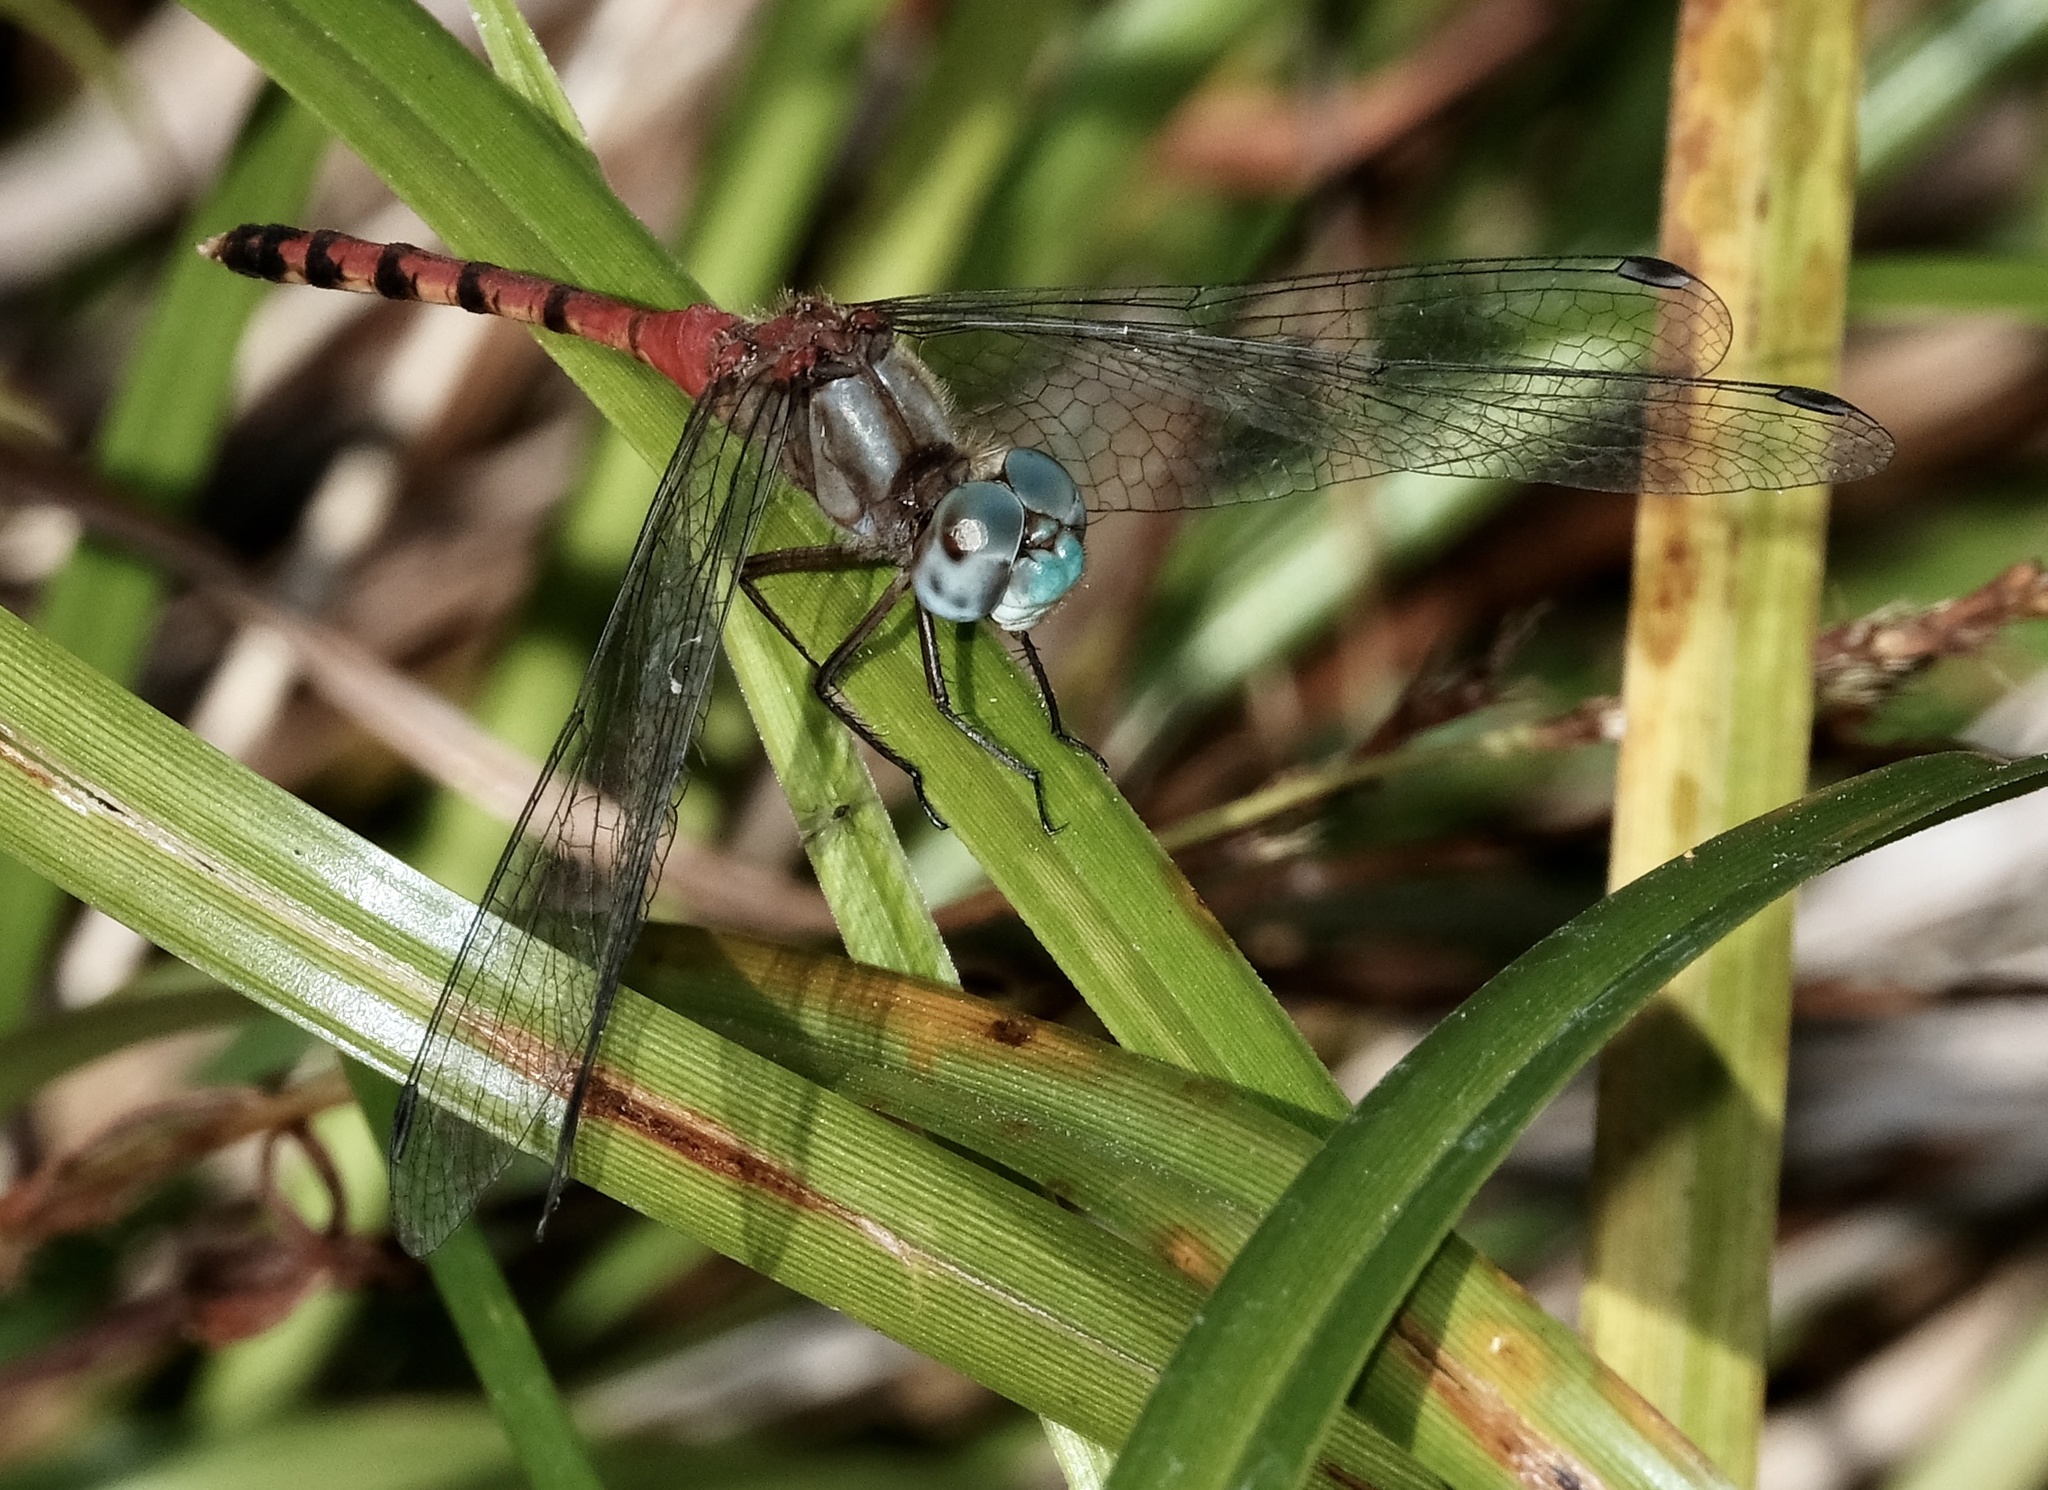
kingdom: Animalia
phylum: Arthropoda
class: Insecta
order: Odonata
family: Libellulidae
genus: Sympetrum
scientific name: Sympetrum ambiguum
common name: Blue-faced meadowhawk
